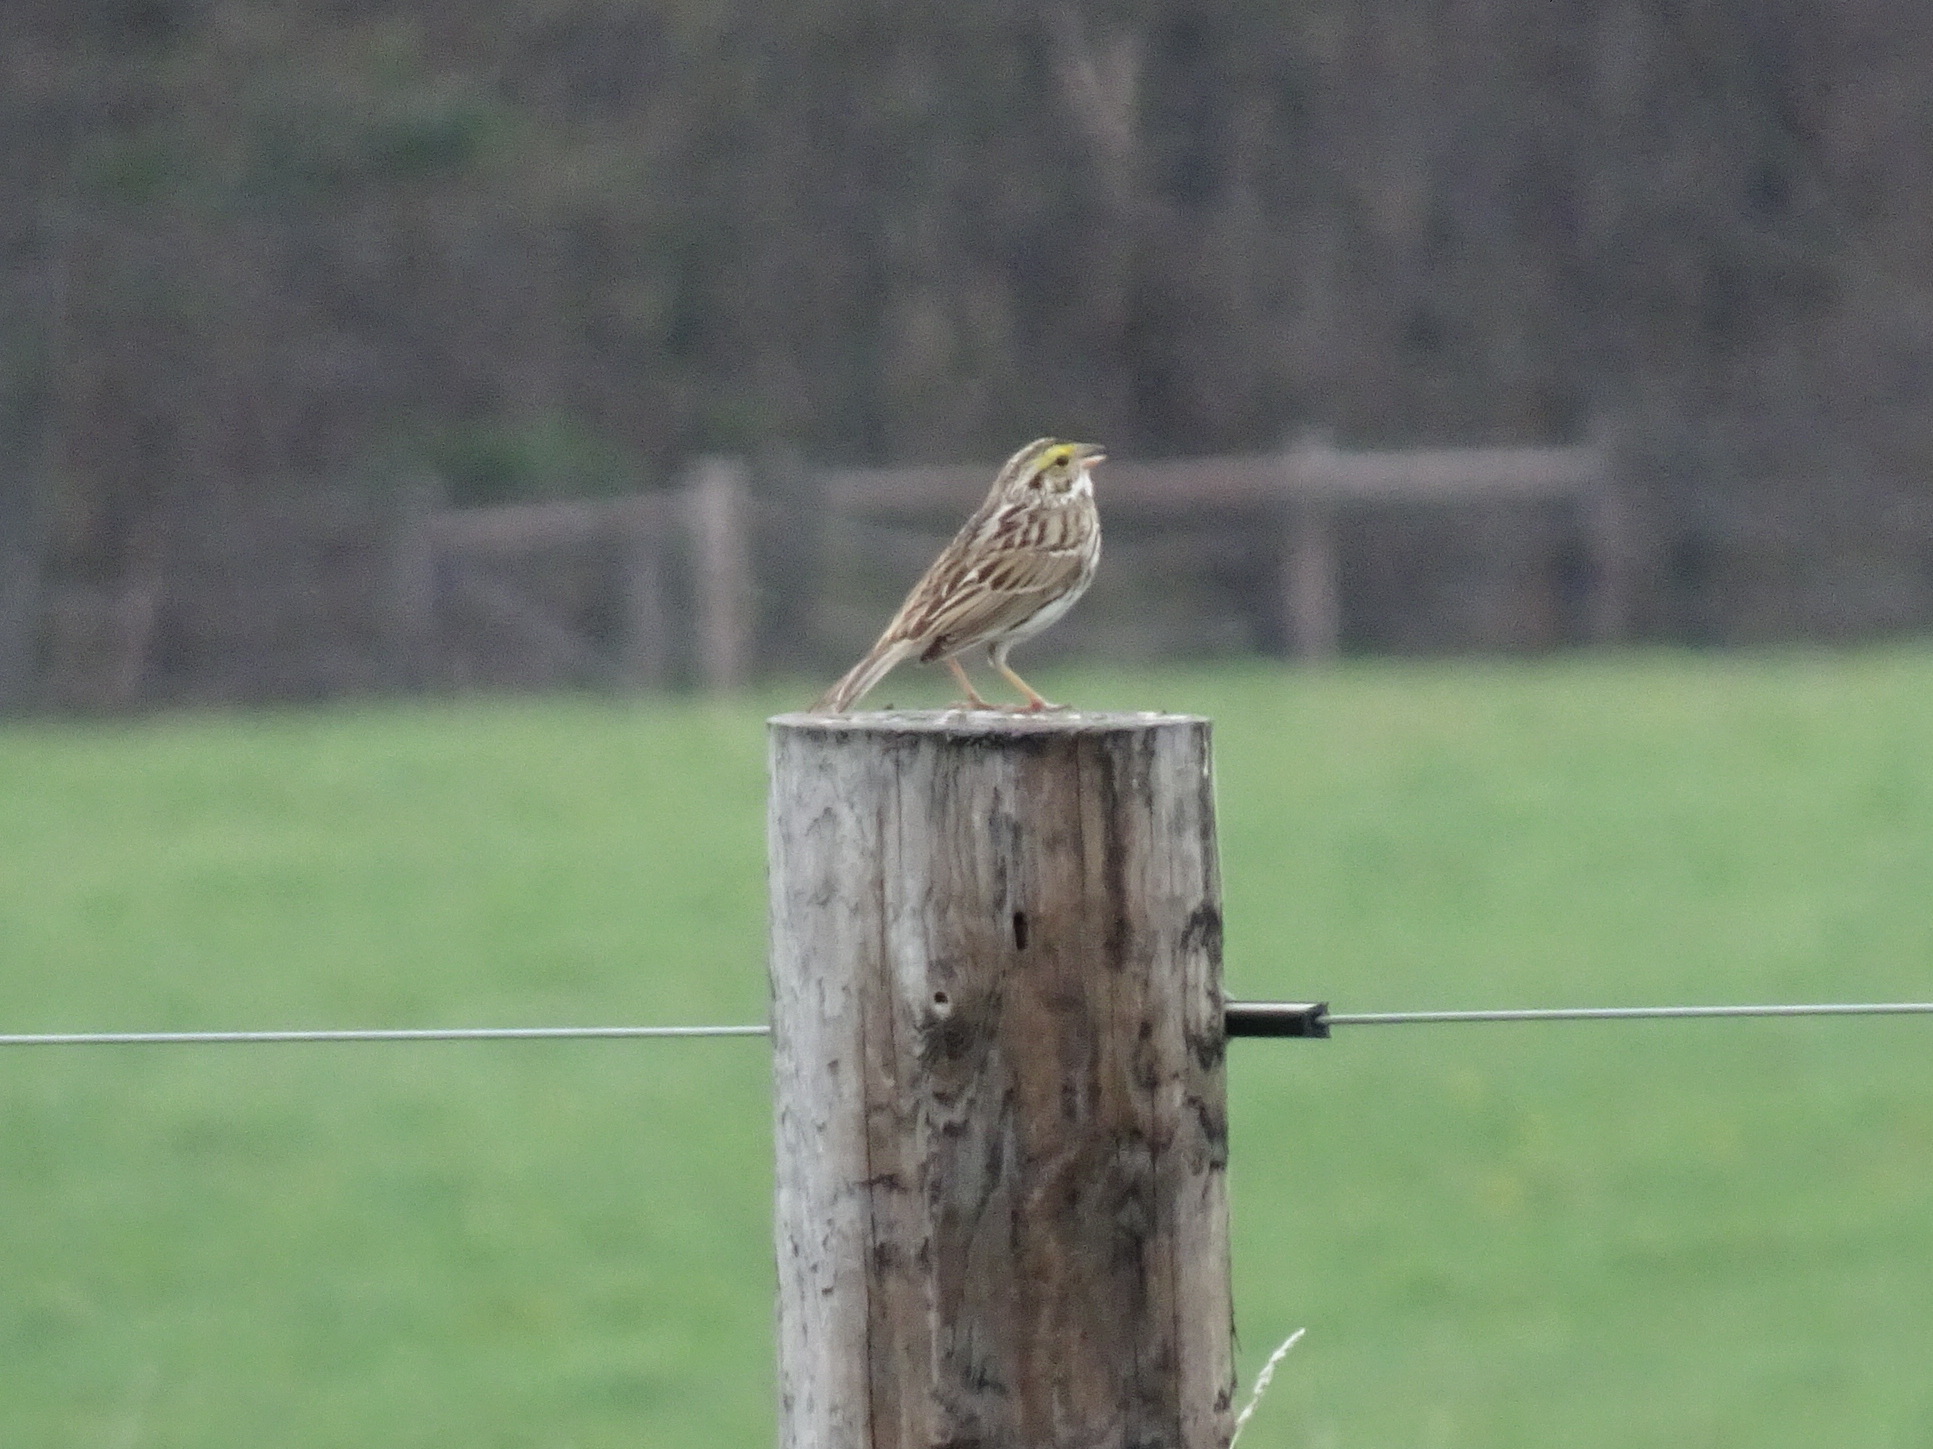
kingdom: Animalia
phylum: Chordata
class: Aves
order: Passeriformes
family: Passerellidae
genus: Passerculus
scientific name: Passerculus sandwichensis
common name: Savannah sparrow
